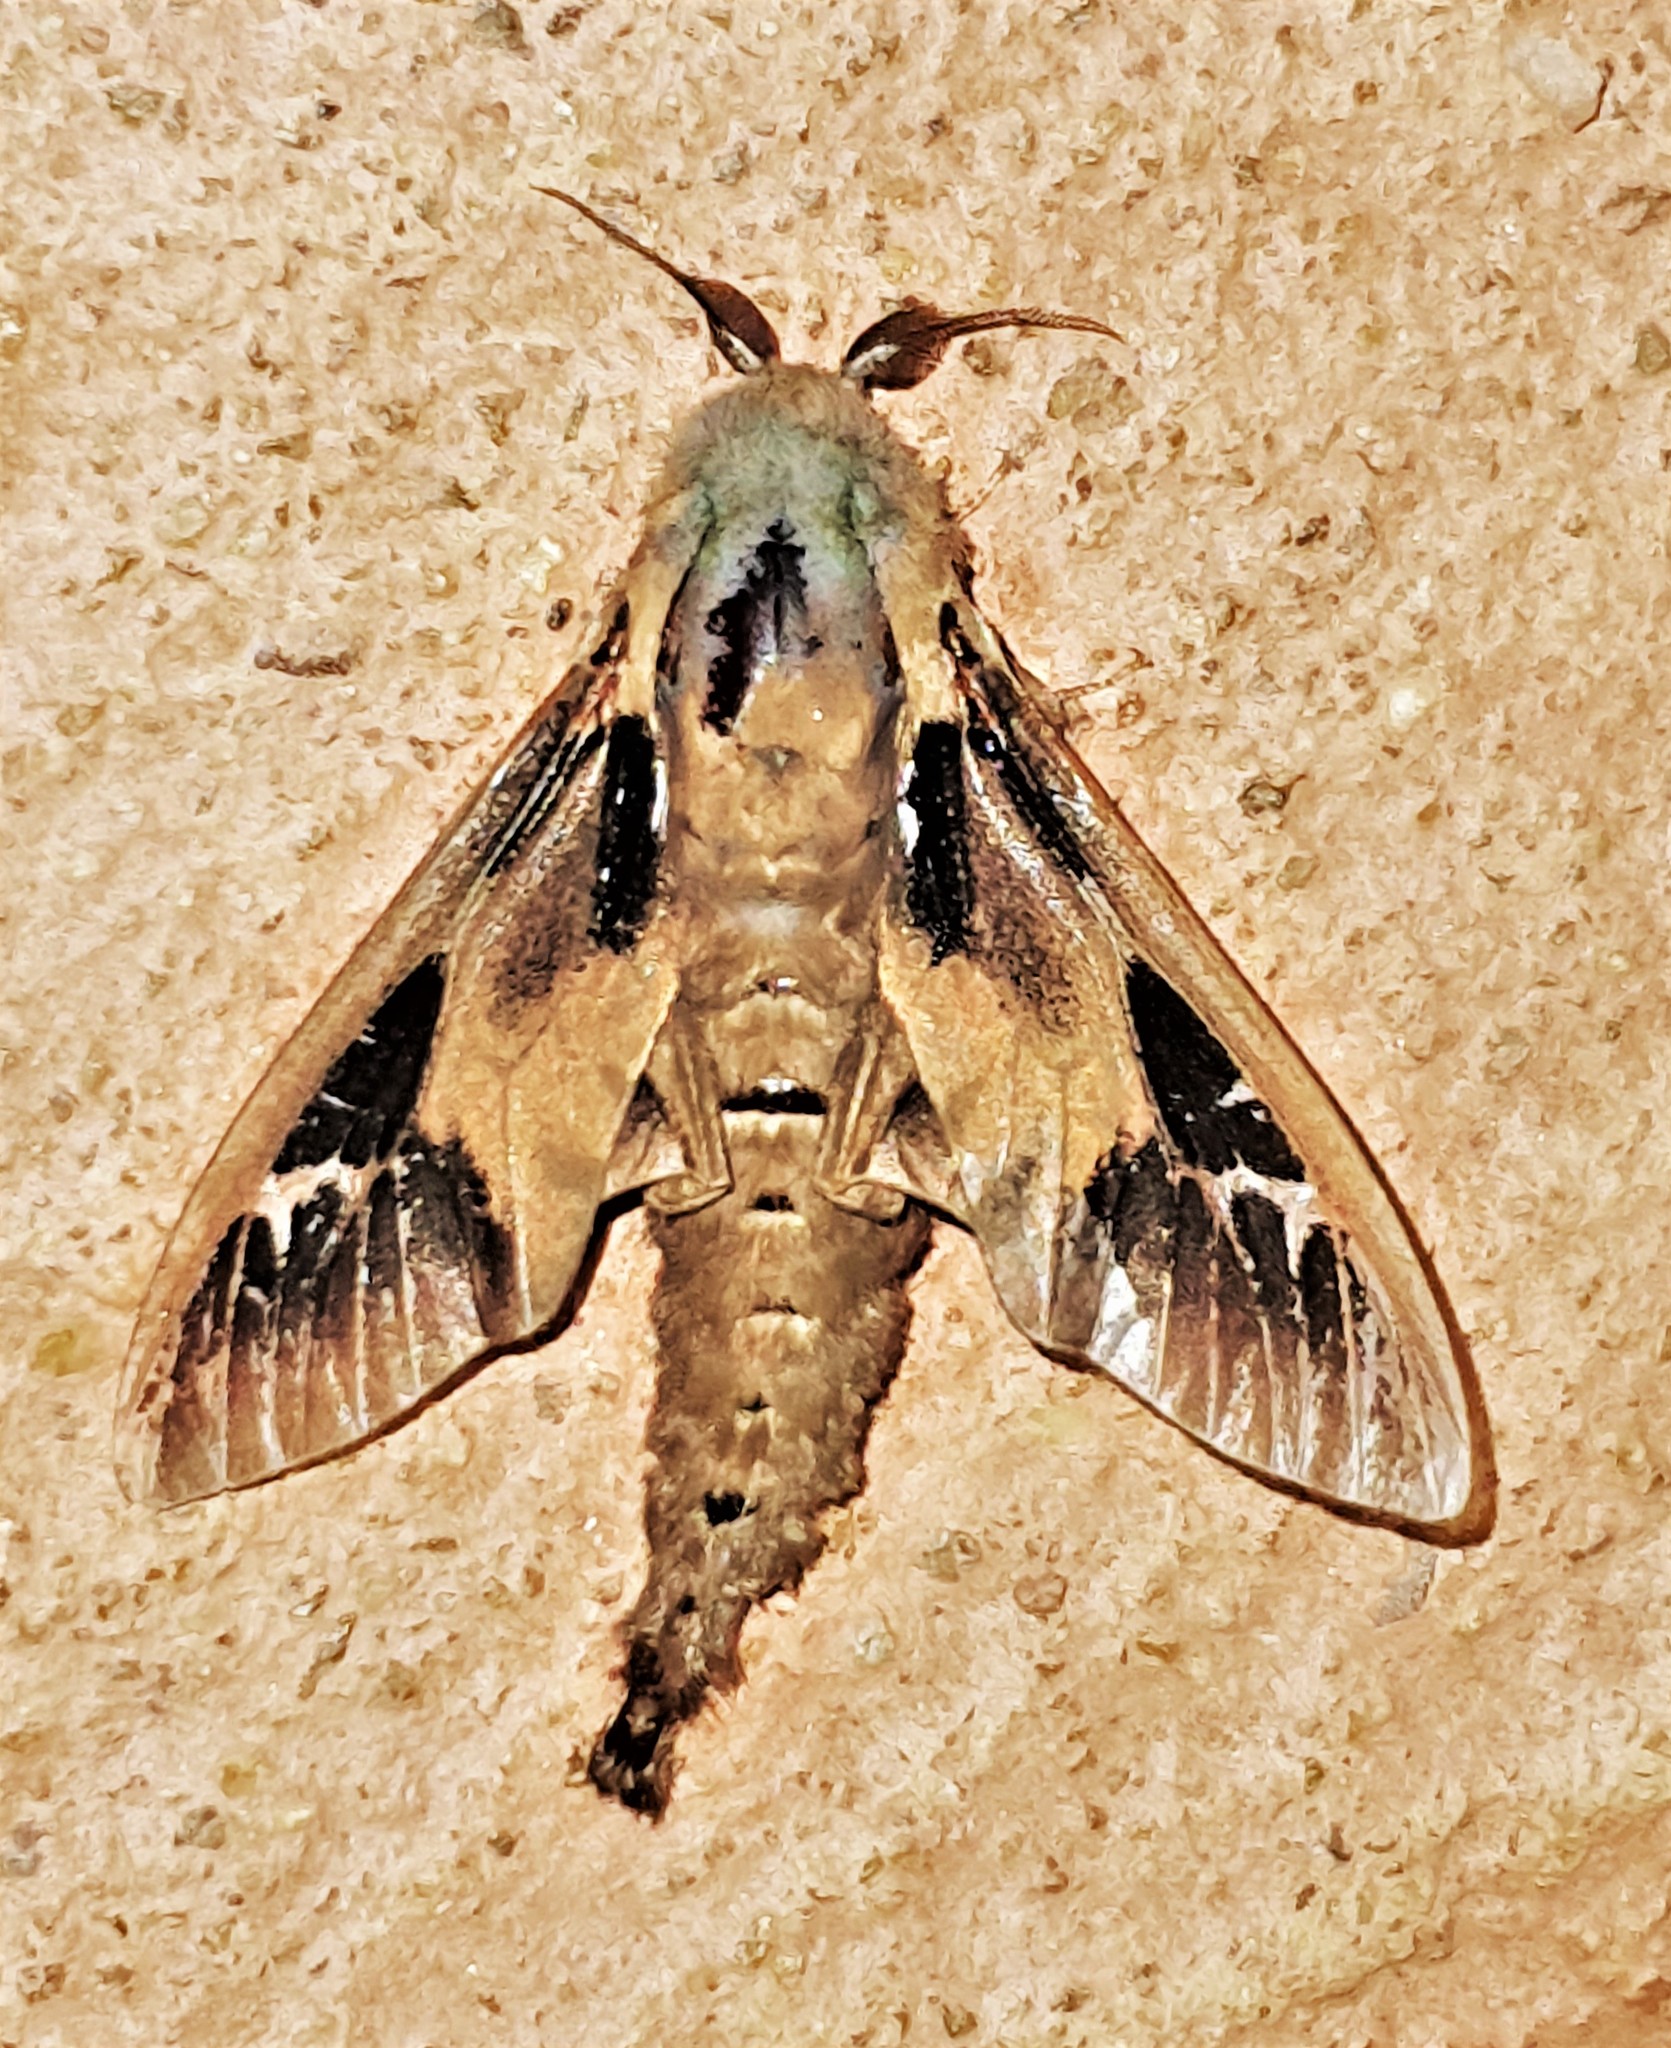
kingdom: Animalia
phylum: Arthropoda
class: Insecta
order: Lepidoptera
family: Psychidae
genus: Oiketicus
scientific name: Oiketicus kirbyi
